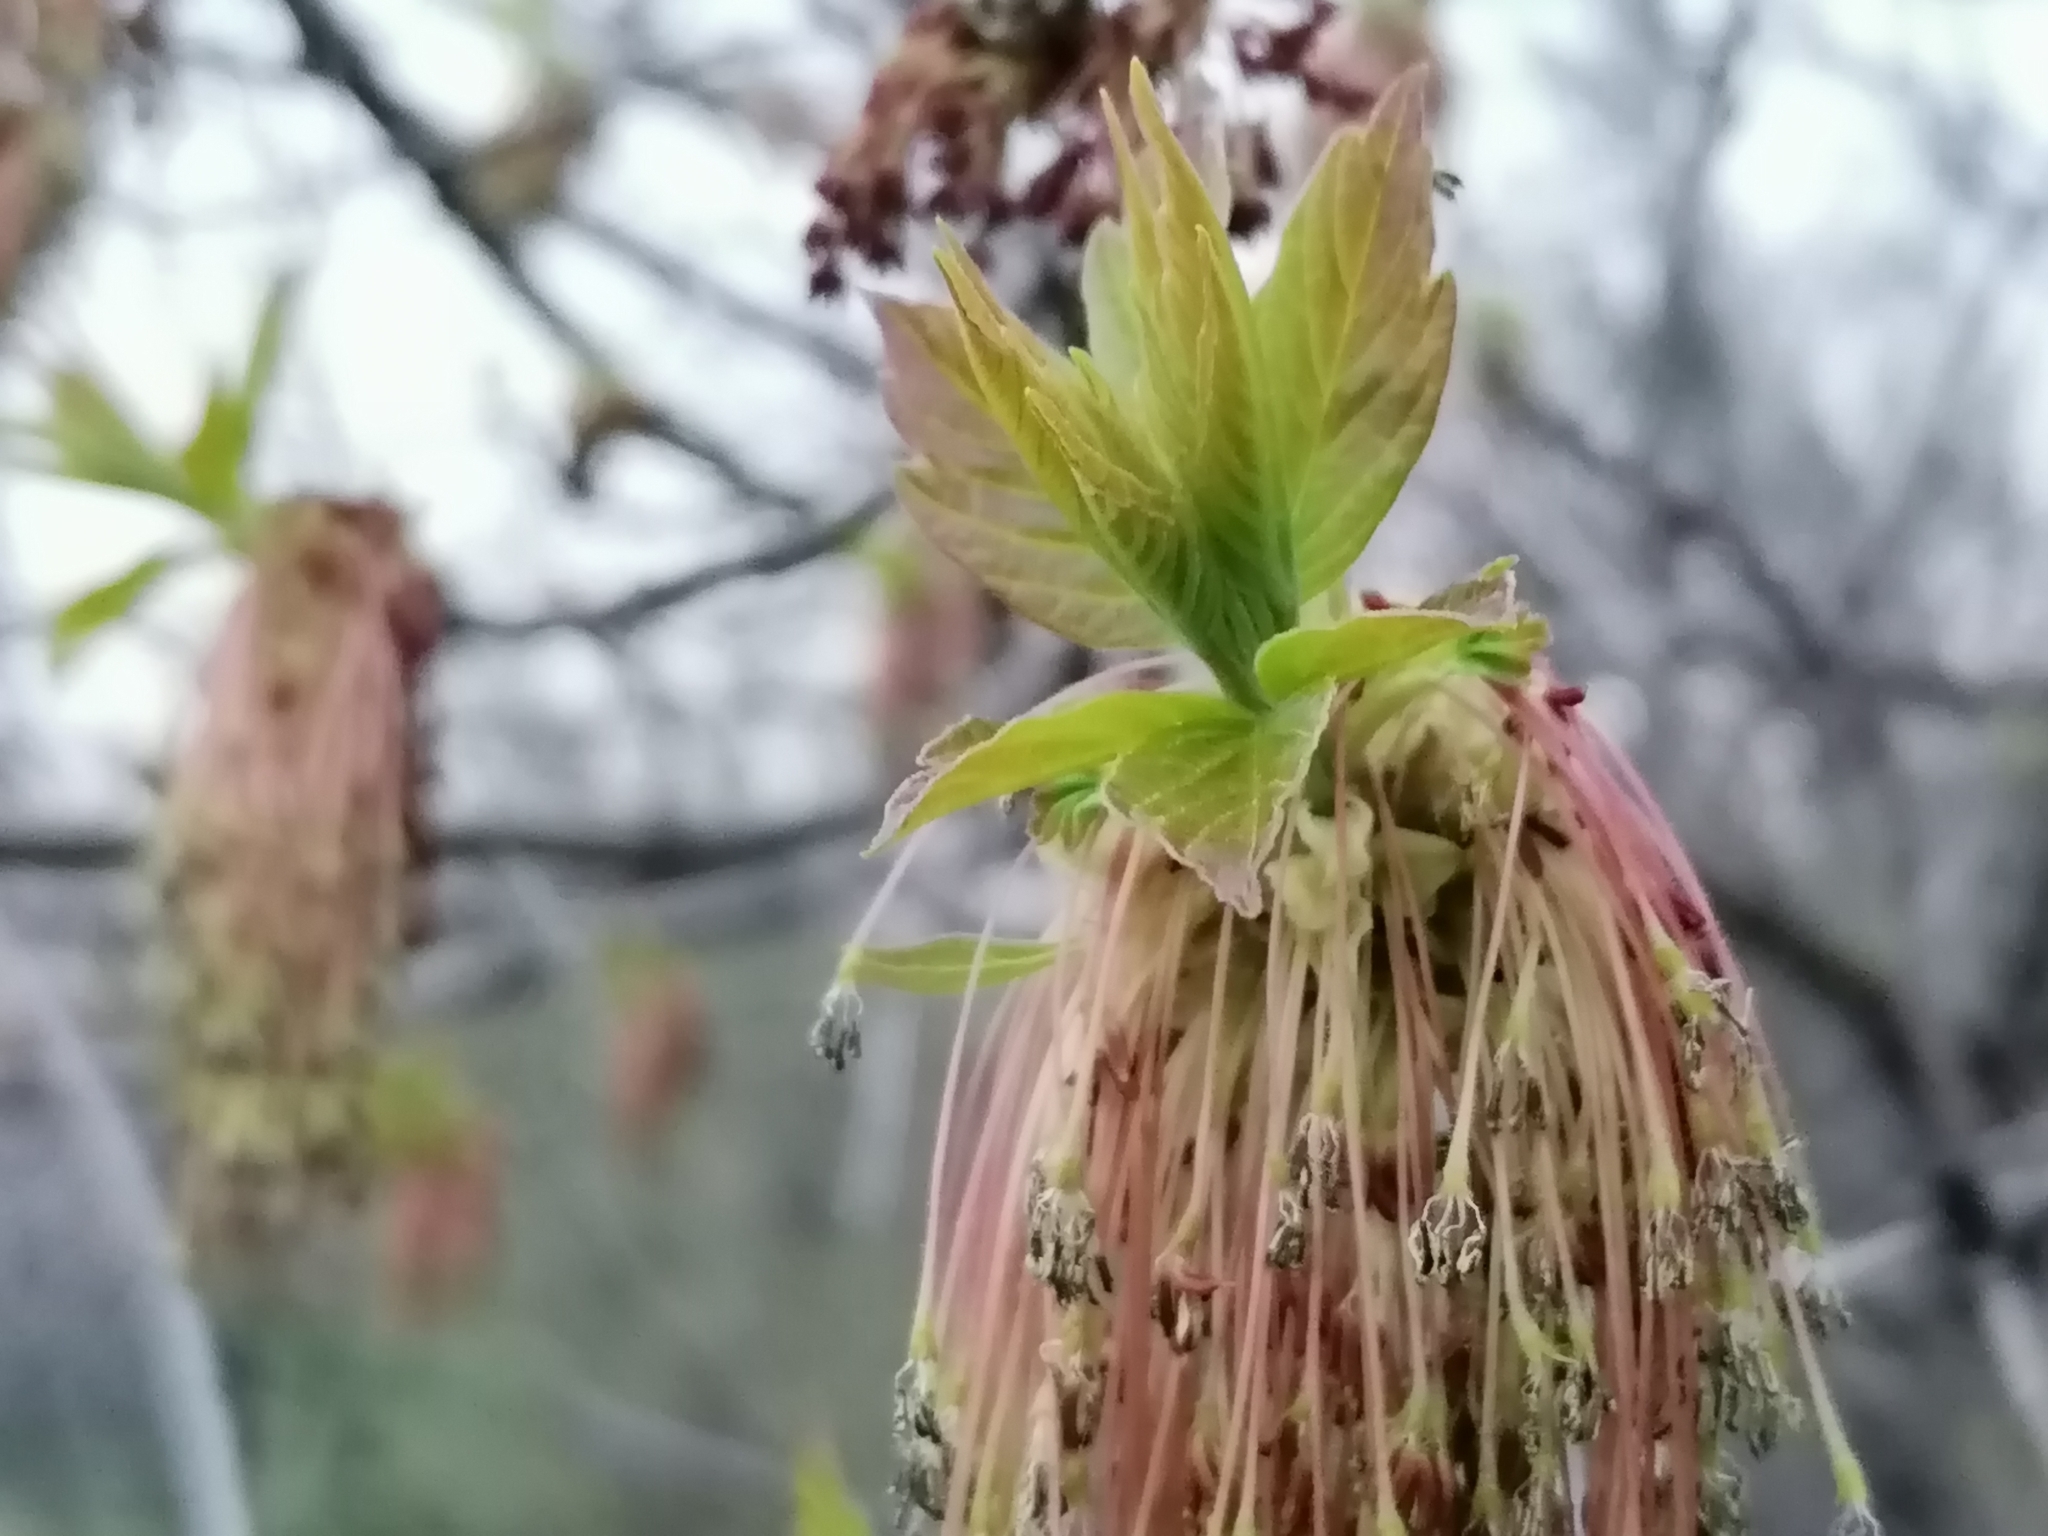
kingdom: Plantae
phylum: Tracheophyta
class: Magnoliopsida
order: Sapindales
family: Sapindaceae
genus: Acer
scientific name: Acer platanoides
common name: Norway maple
